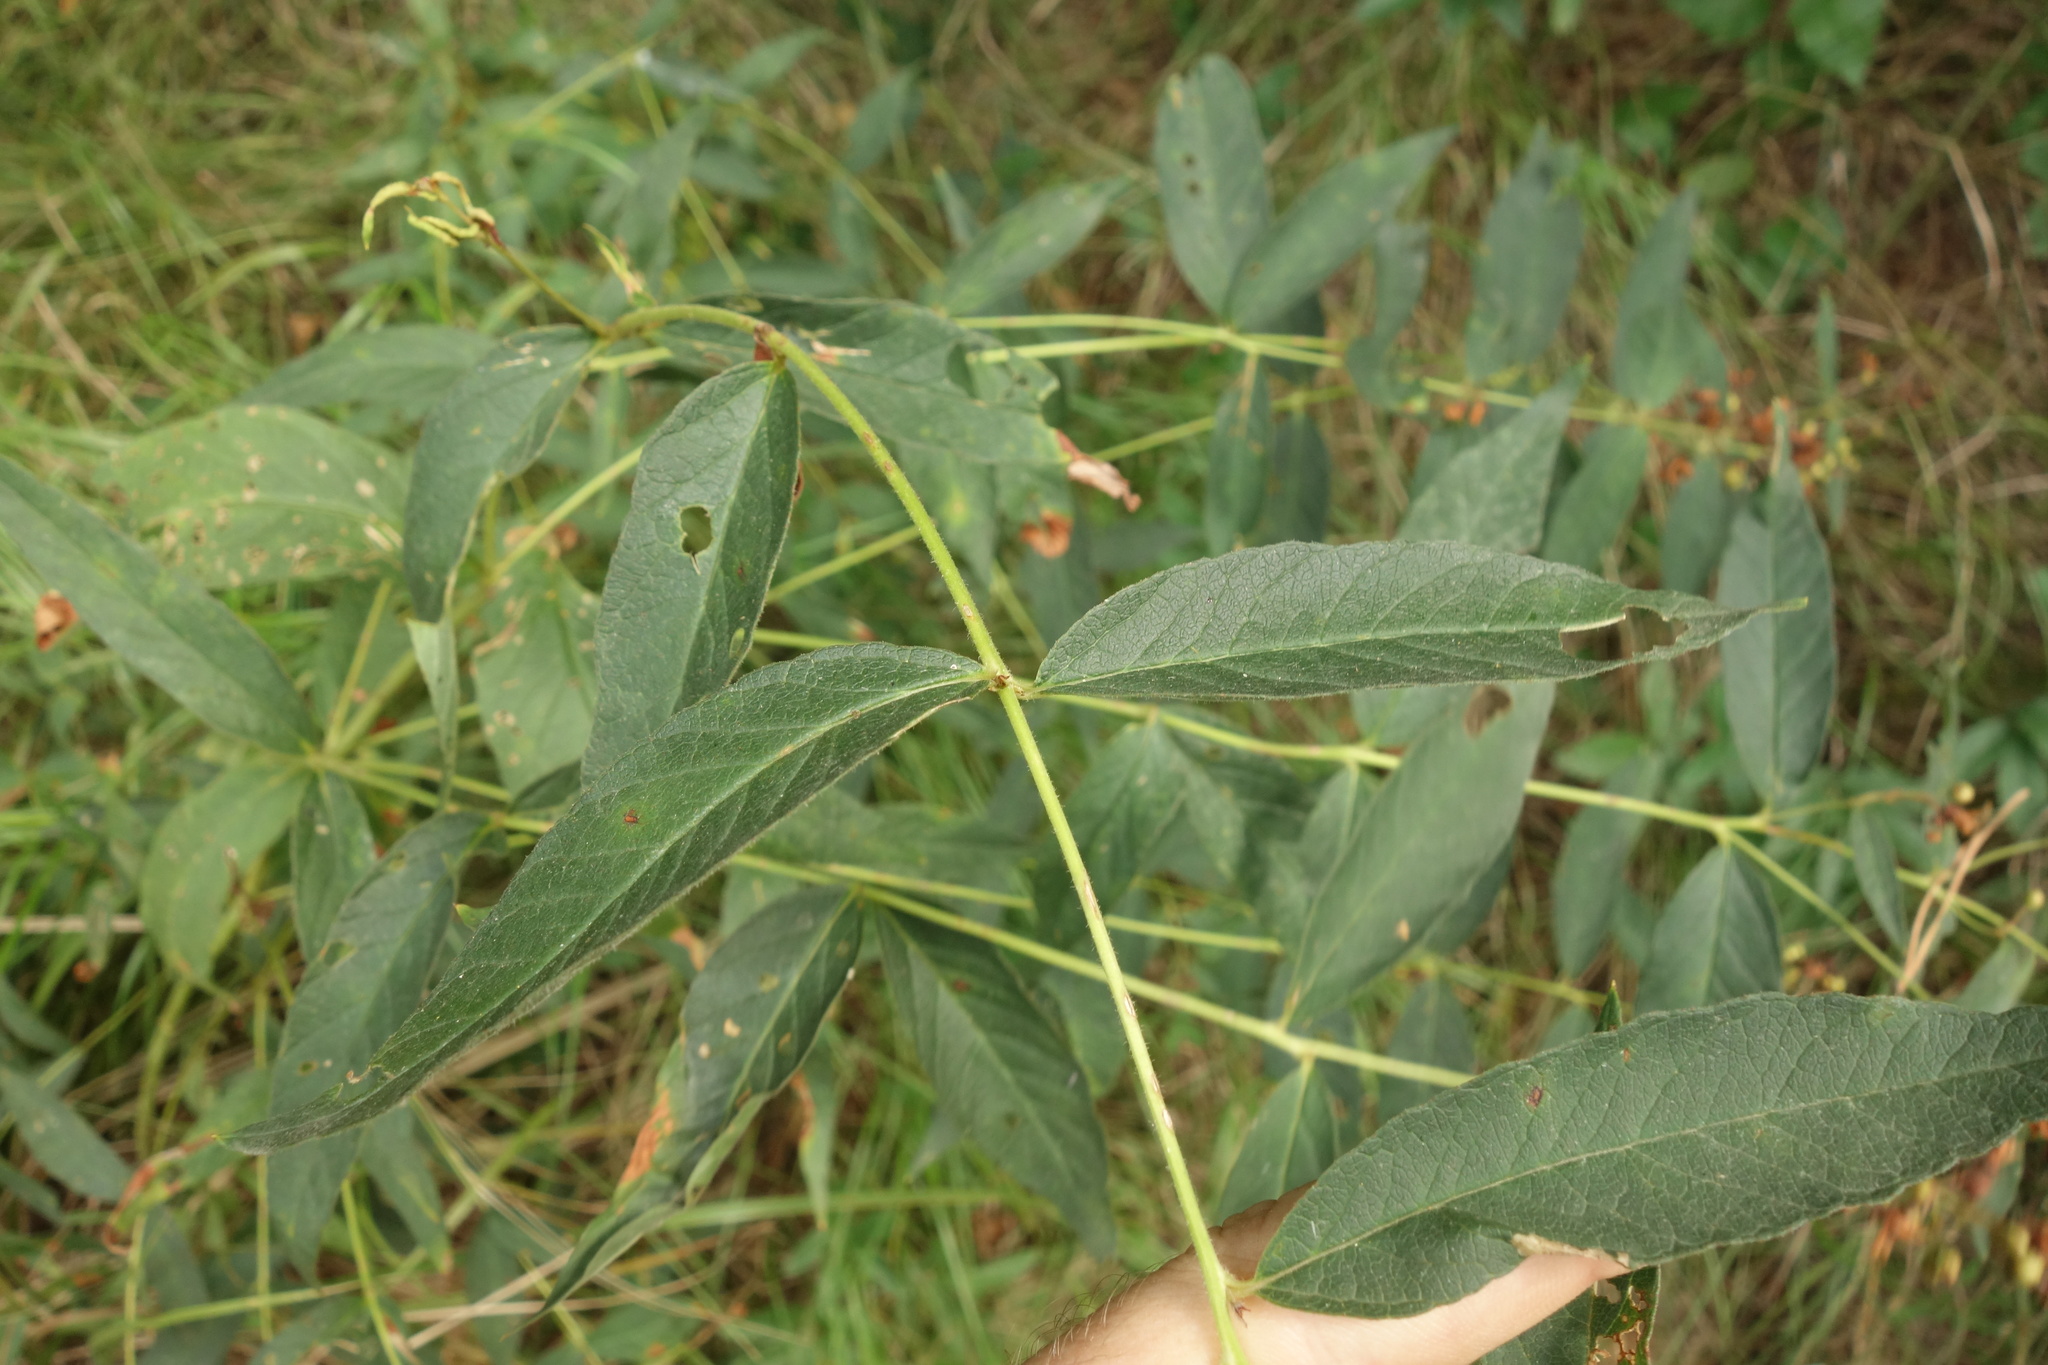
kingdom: Plantae
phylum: Tracheophyta
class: Magnoliopsida
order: Ericales
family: Primulaceae
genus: Lysimachia
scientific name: Lysimachia vulgaris
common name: Yellow loosestrife
